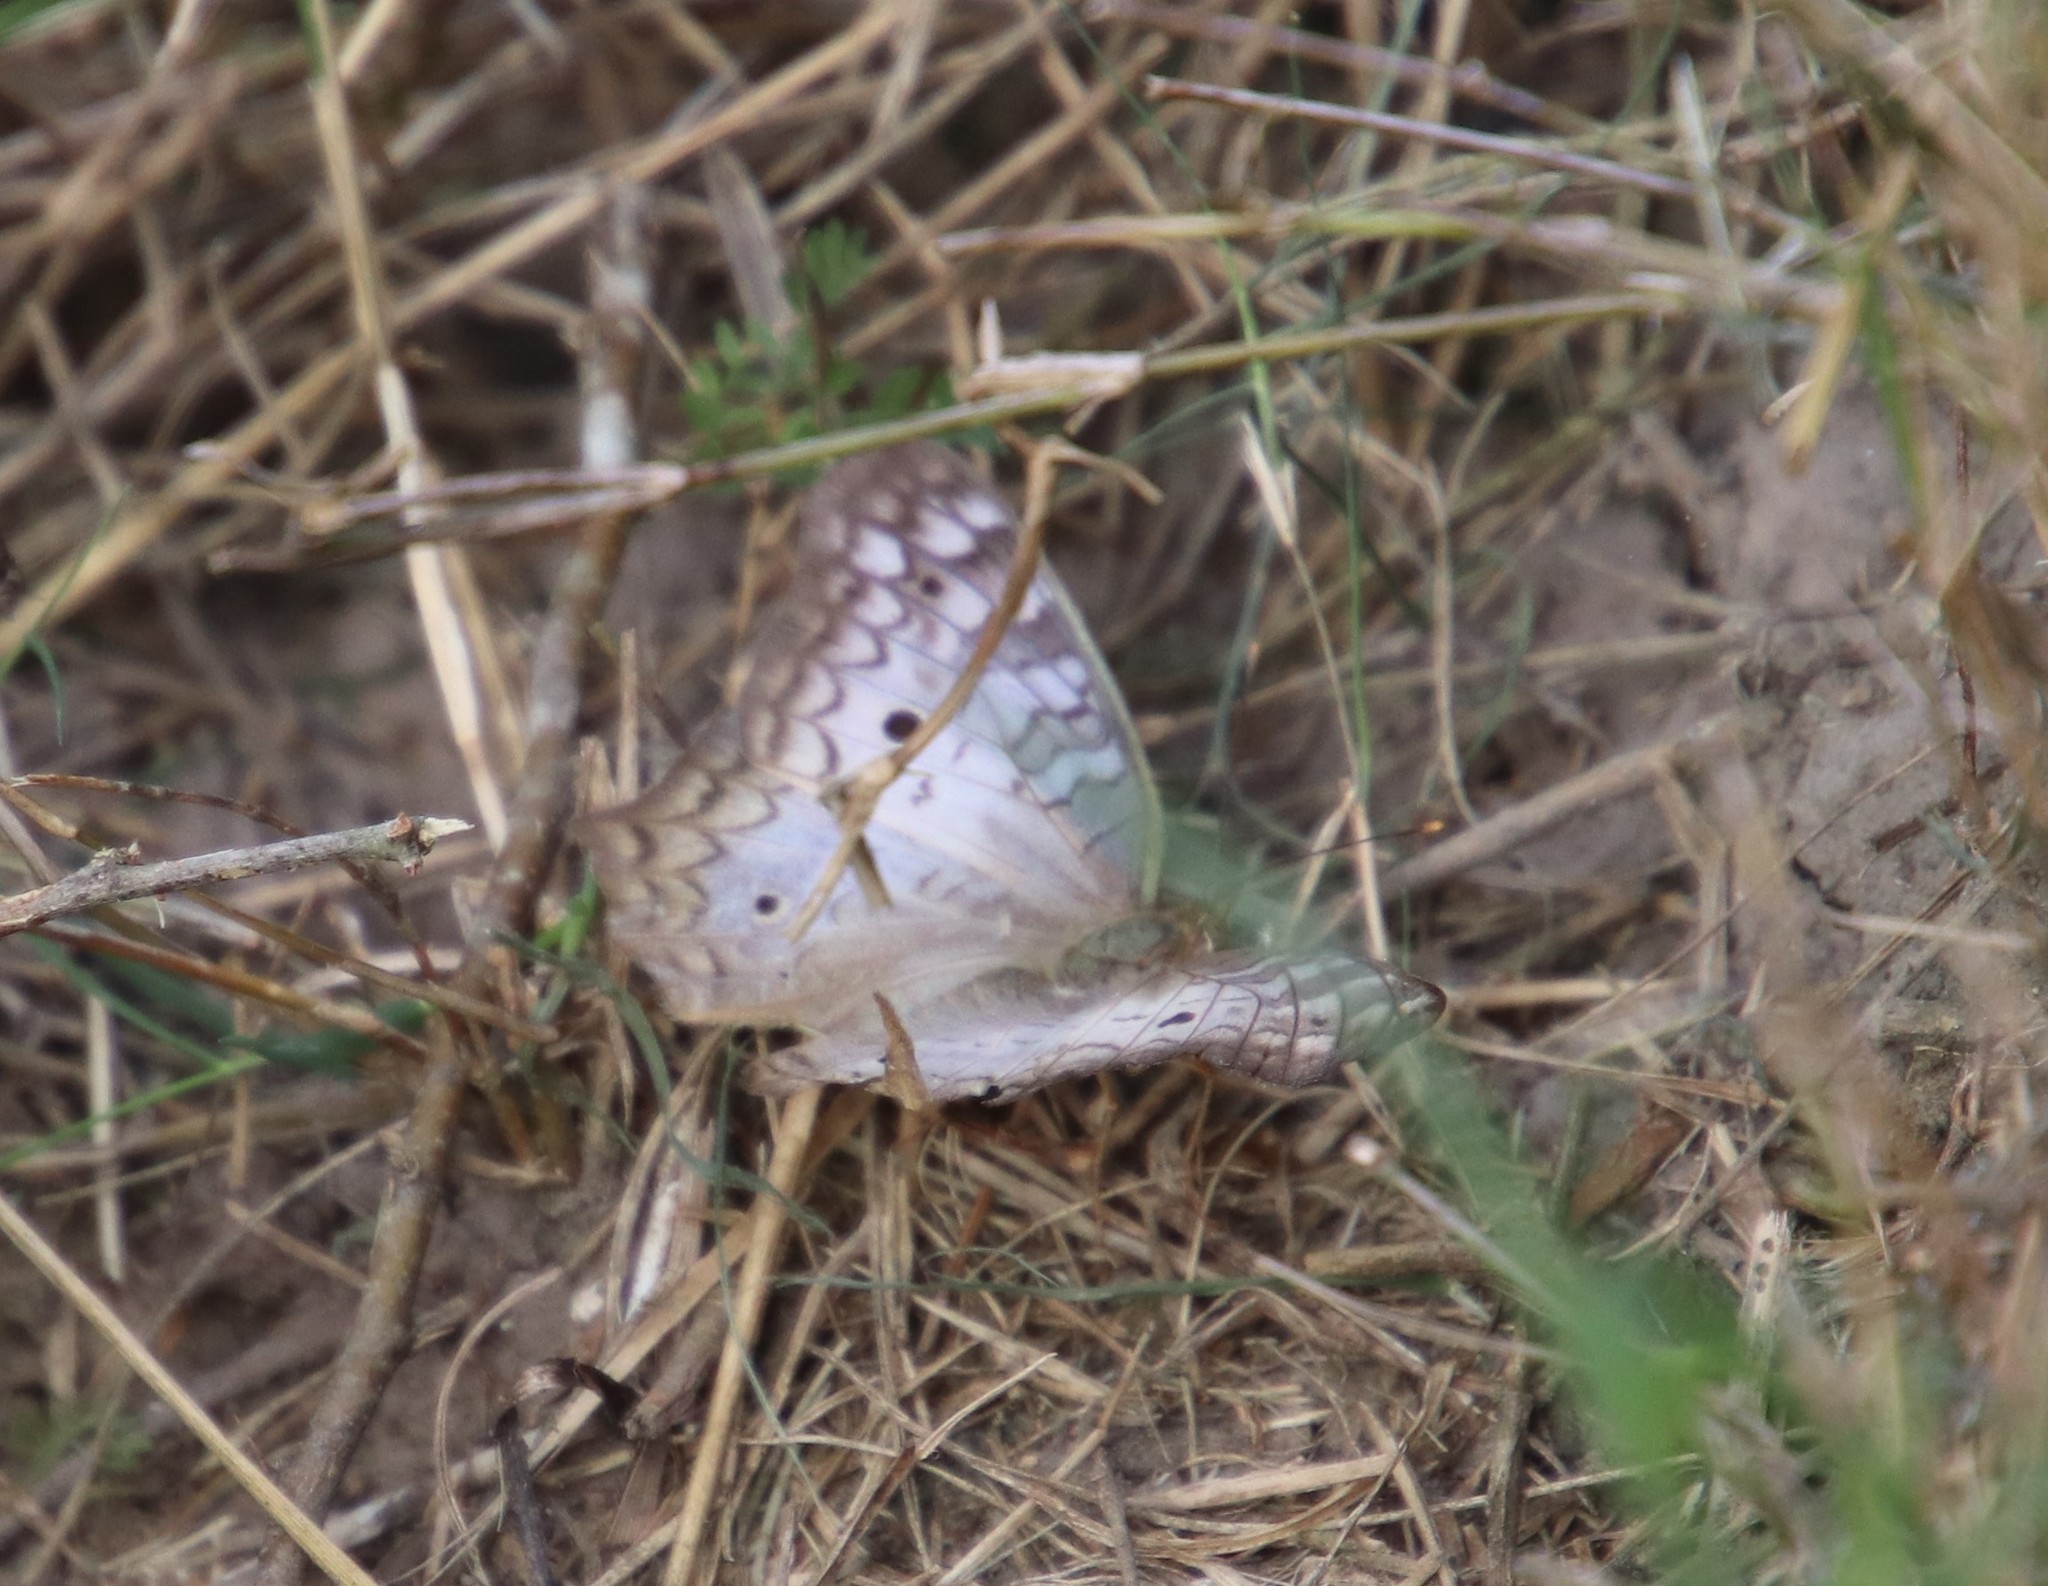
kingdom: Animalia
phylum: Arthropoda
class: Insecta
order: Lepidoptera
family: Nymphalidae
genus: Anartia
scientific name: Anartia jatrophae
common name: White peacock
